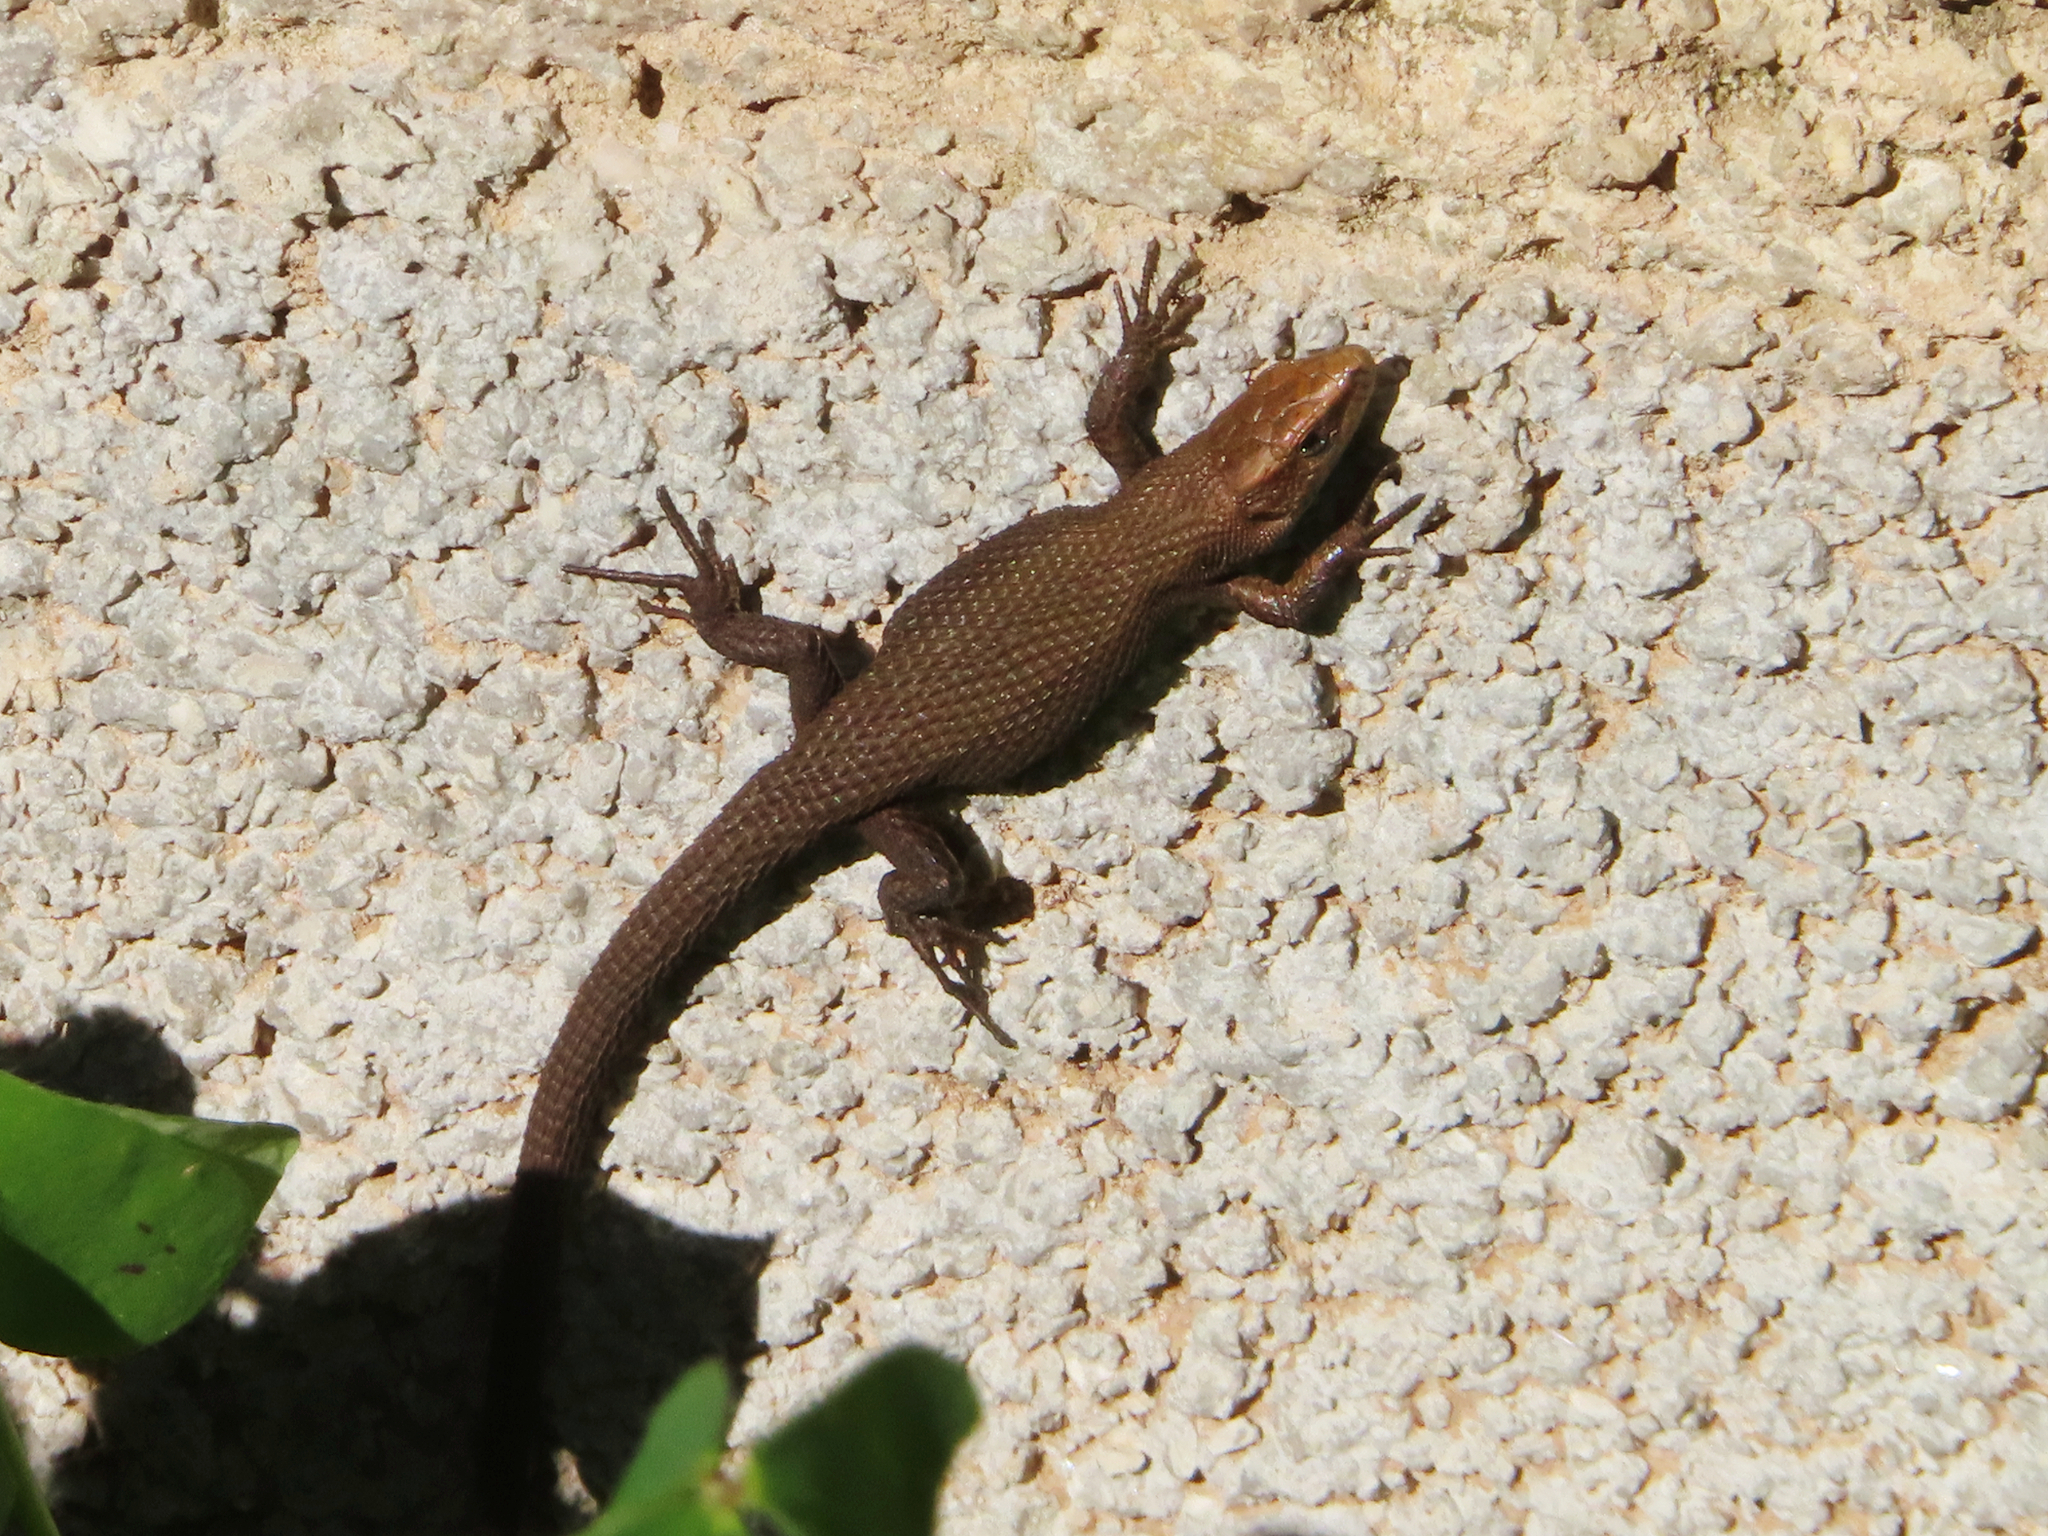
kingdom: Animalia
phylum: Chordata
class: Squamata
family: Lacertidae
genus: Algyroides
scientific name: Algyroides moreoticus
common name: Greek algyroides
